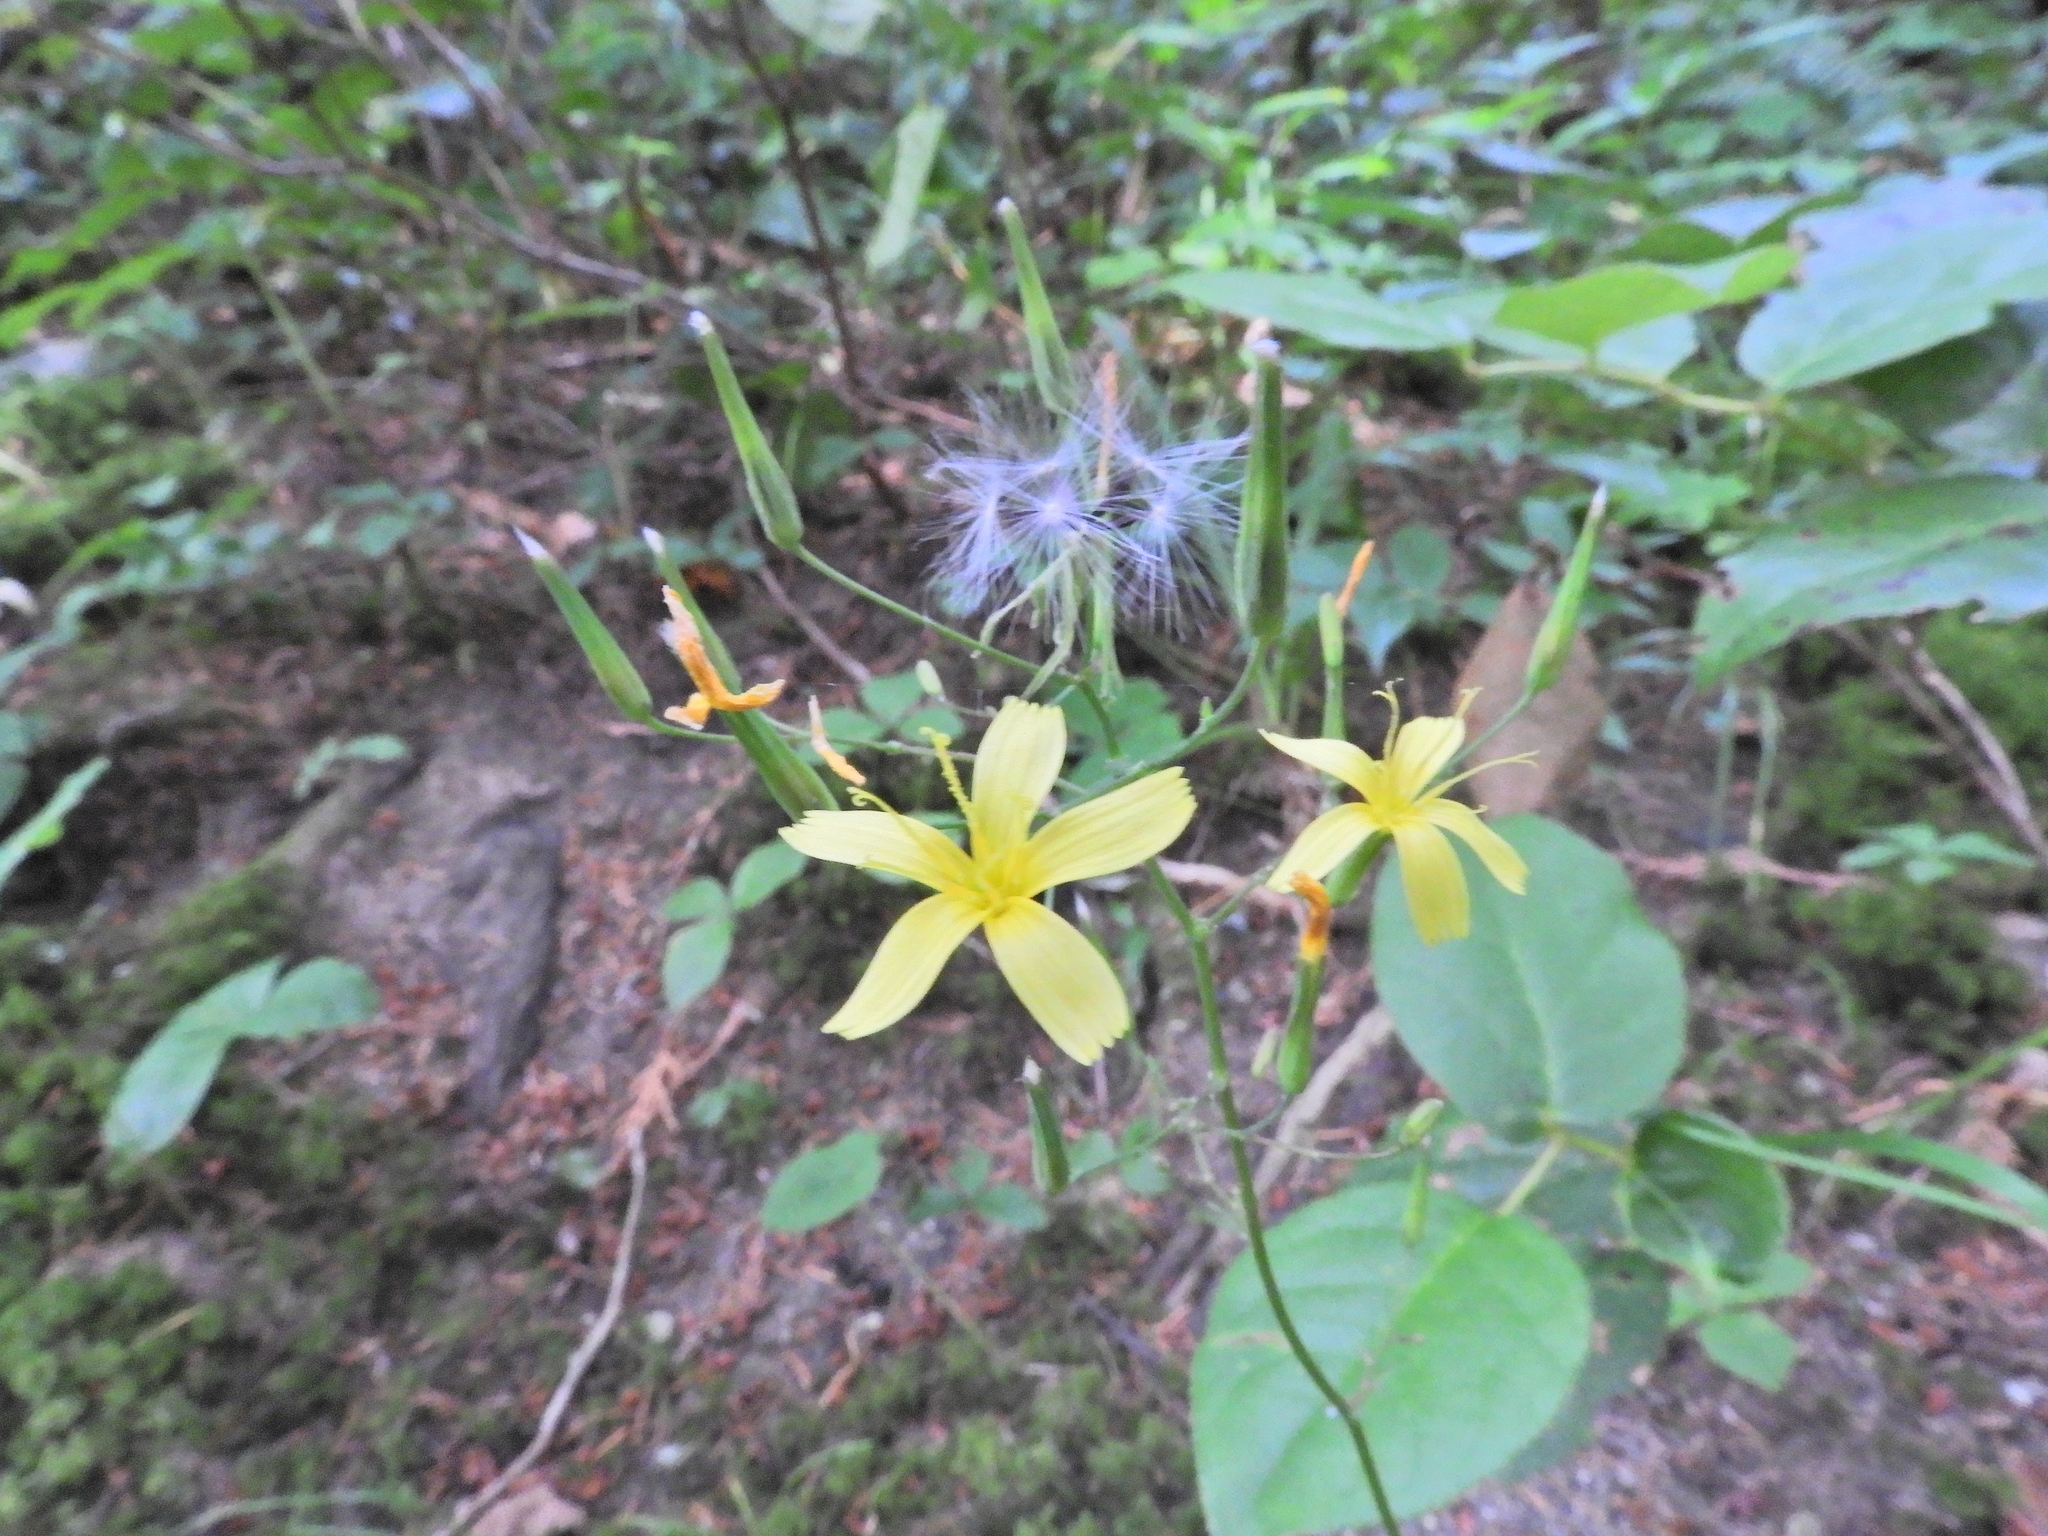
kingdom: Plantae
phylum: Tracheophyta
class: Magnoliopsida
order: Asterales
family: Asteraceae
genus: Mycelis
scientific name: Mycelis muralis
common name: Wall lettuce
